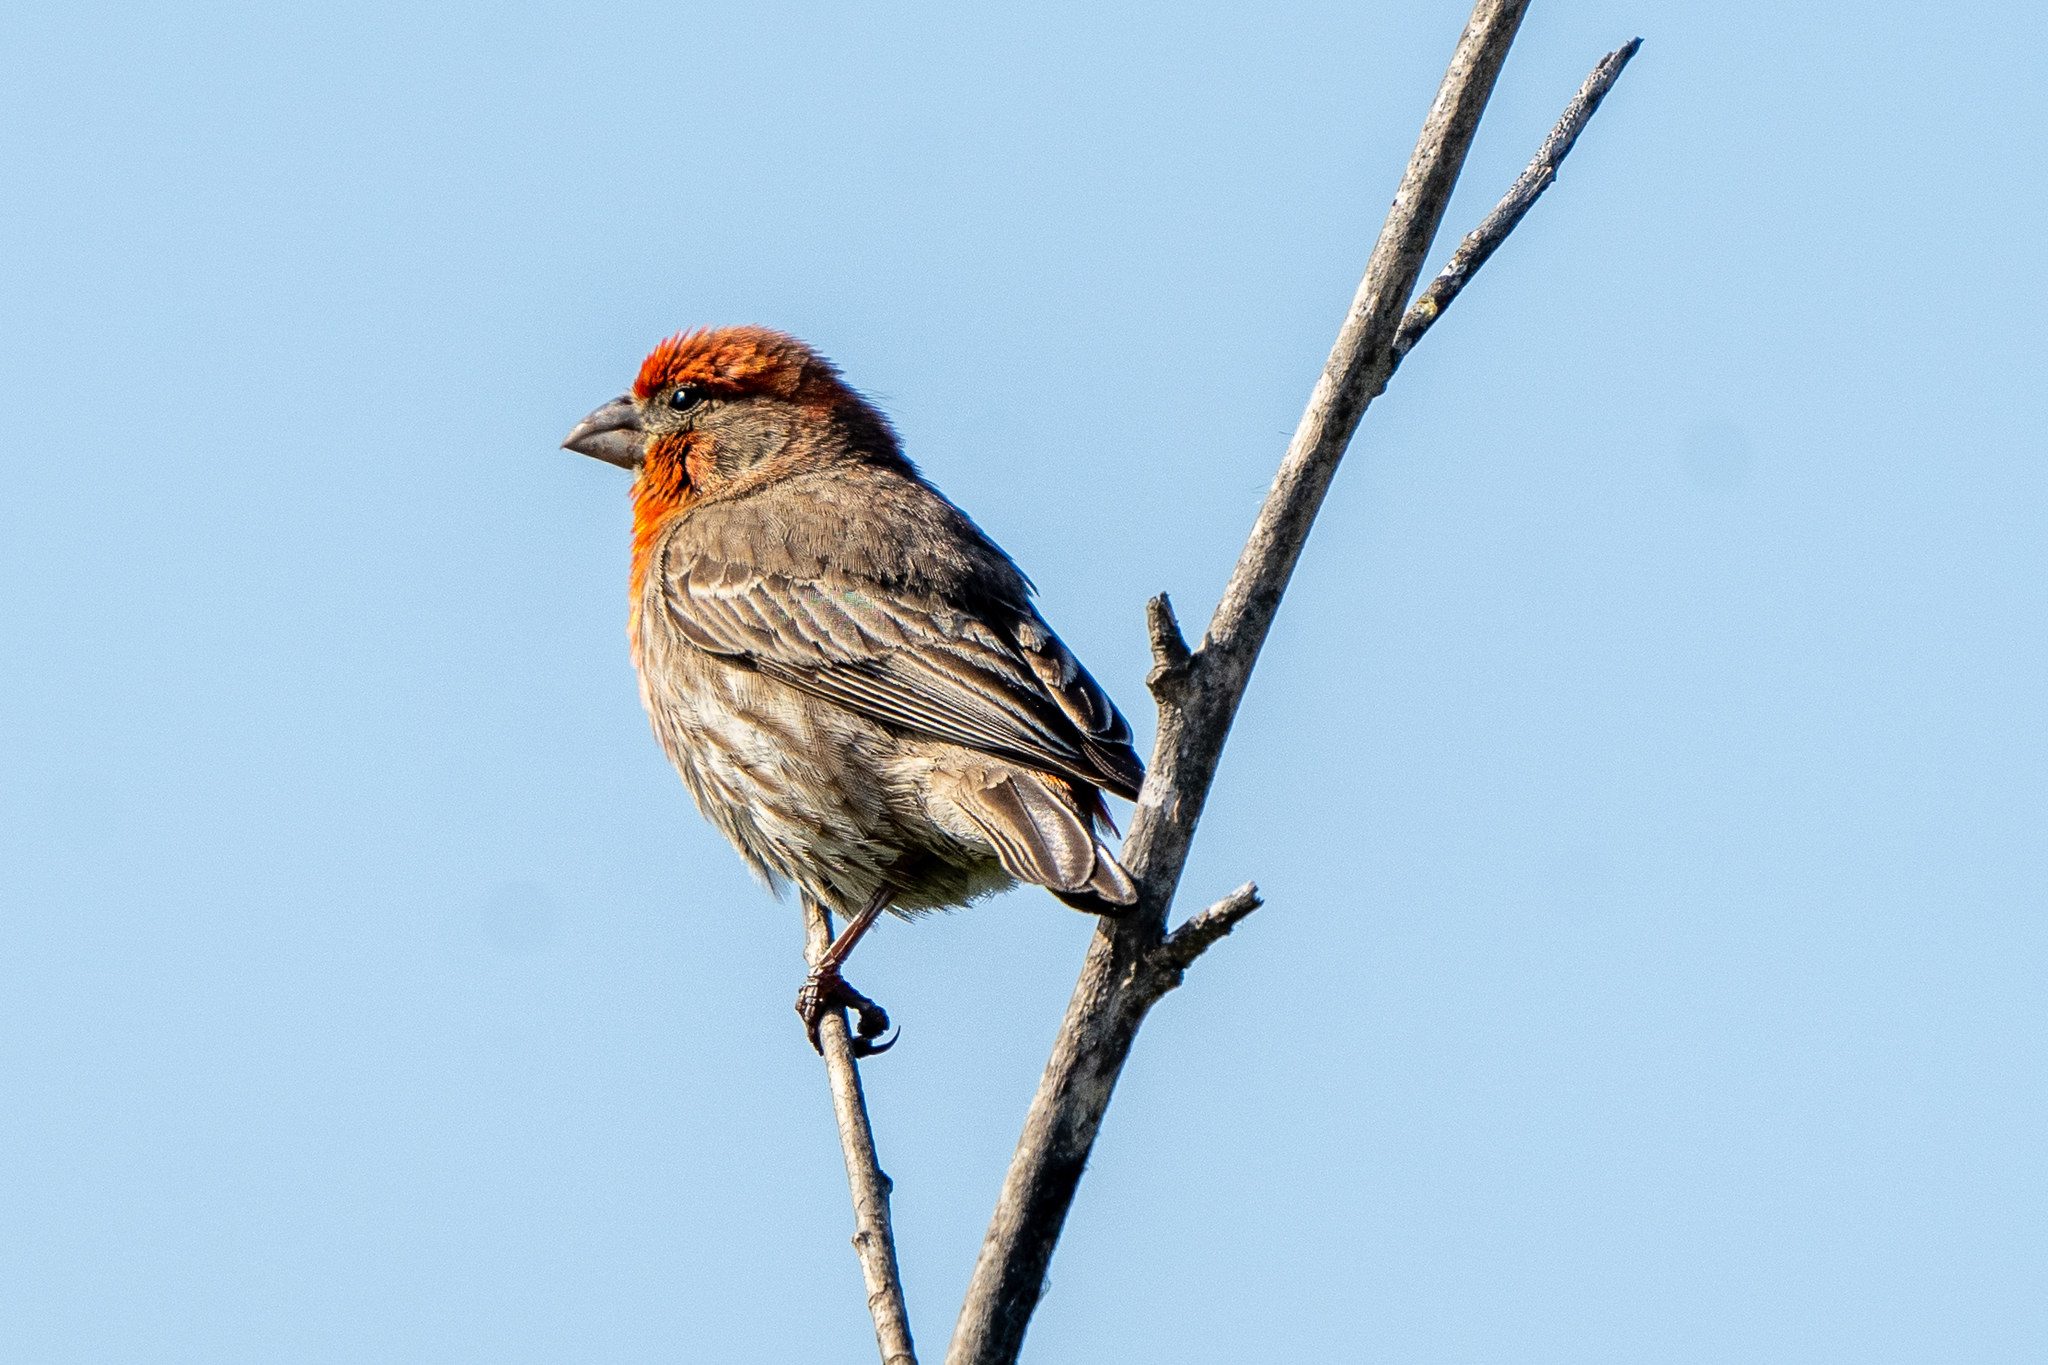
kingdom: Animalia
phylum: Chordata
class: Aves
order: Passeriformes
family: Fringillidae
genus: Haemorhous
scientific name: Haemorhous mexicanus
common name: House finch
